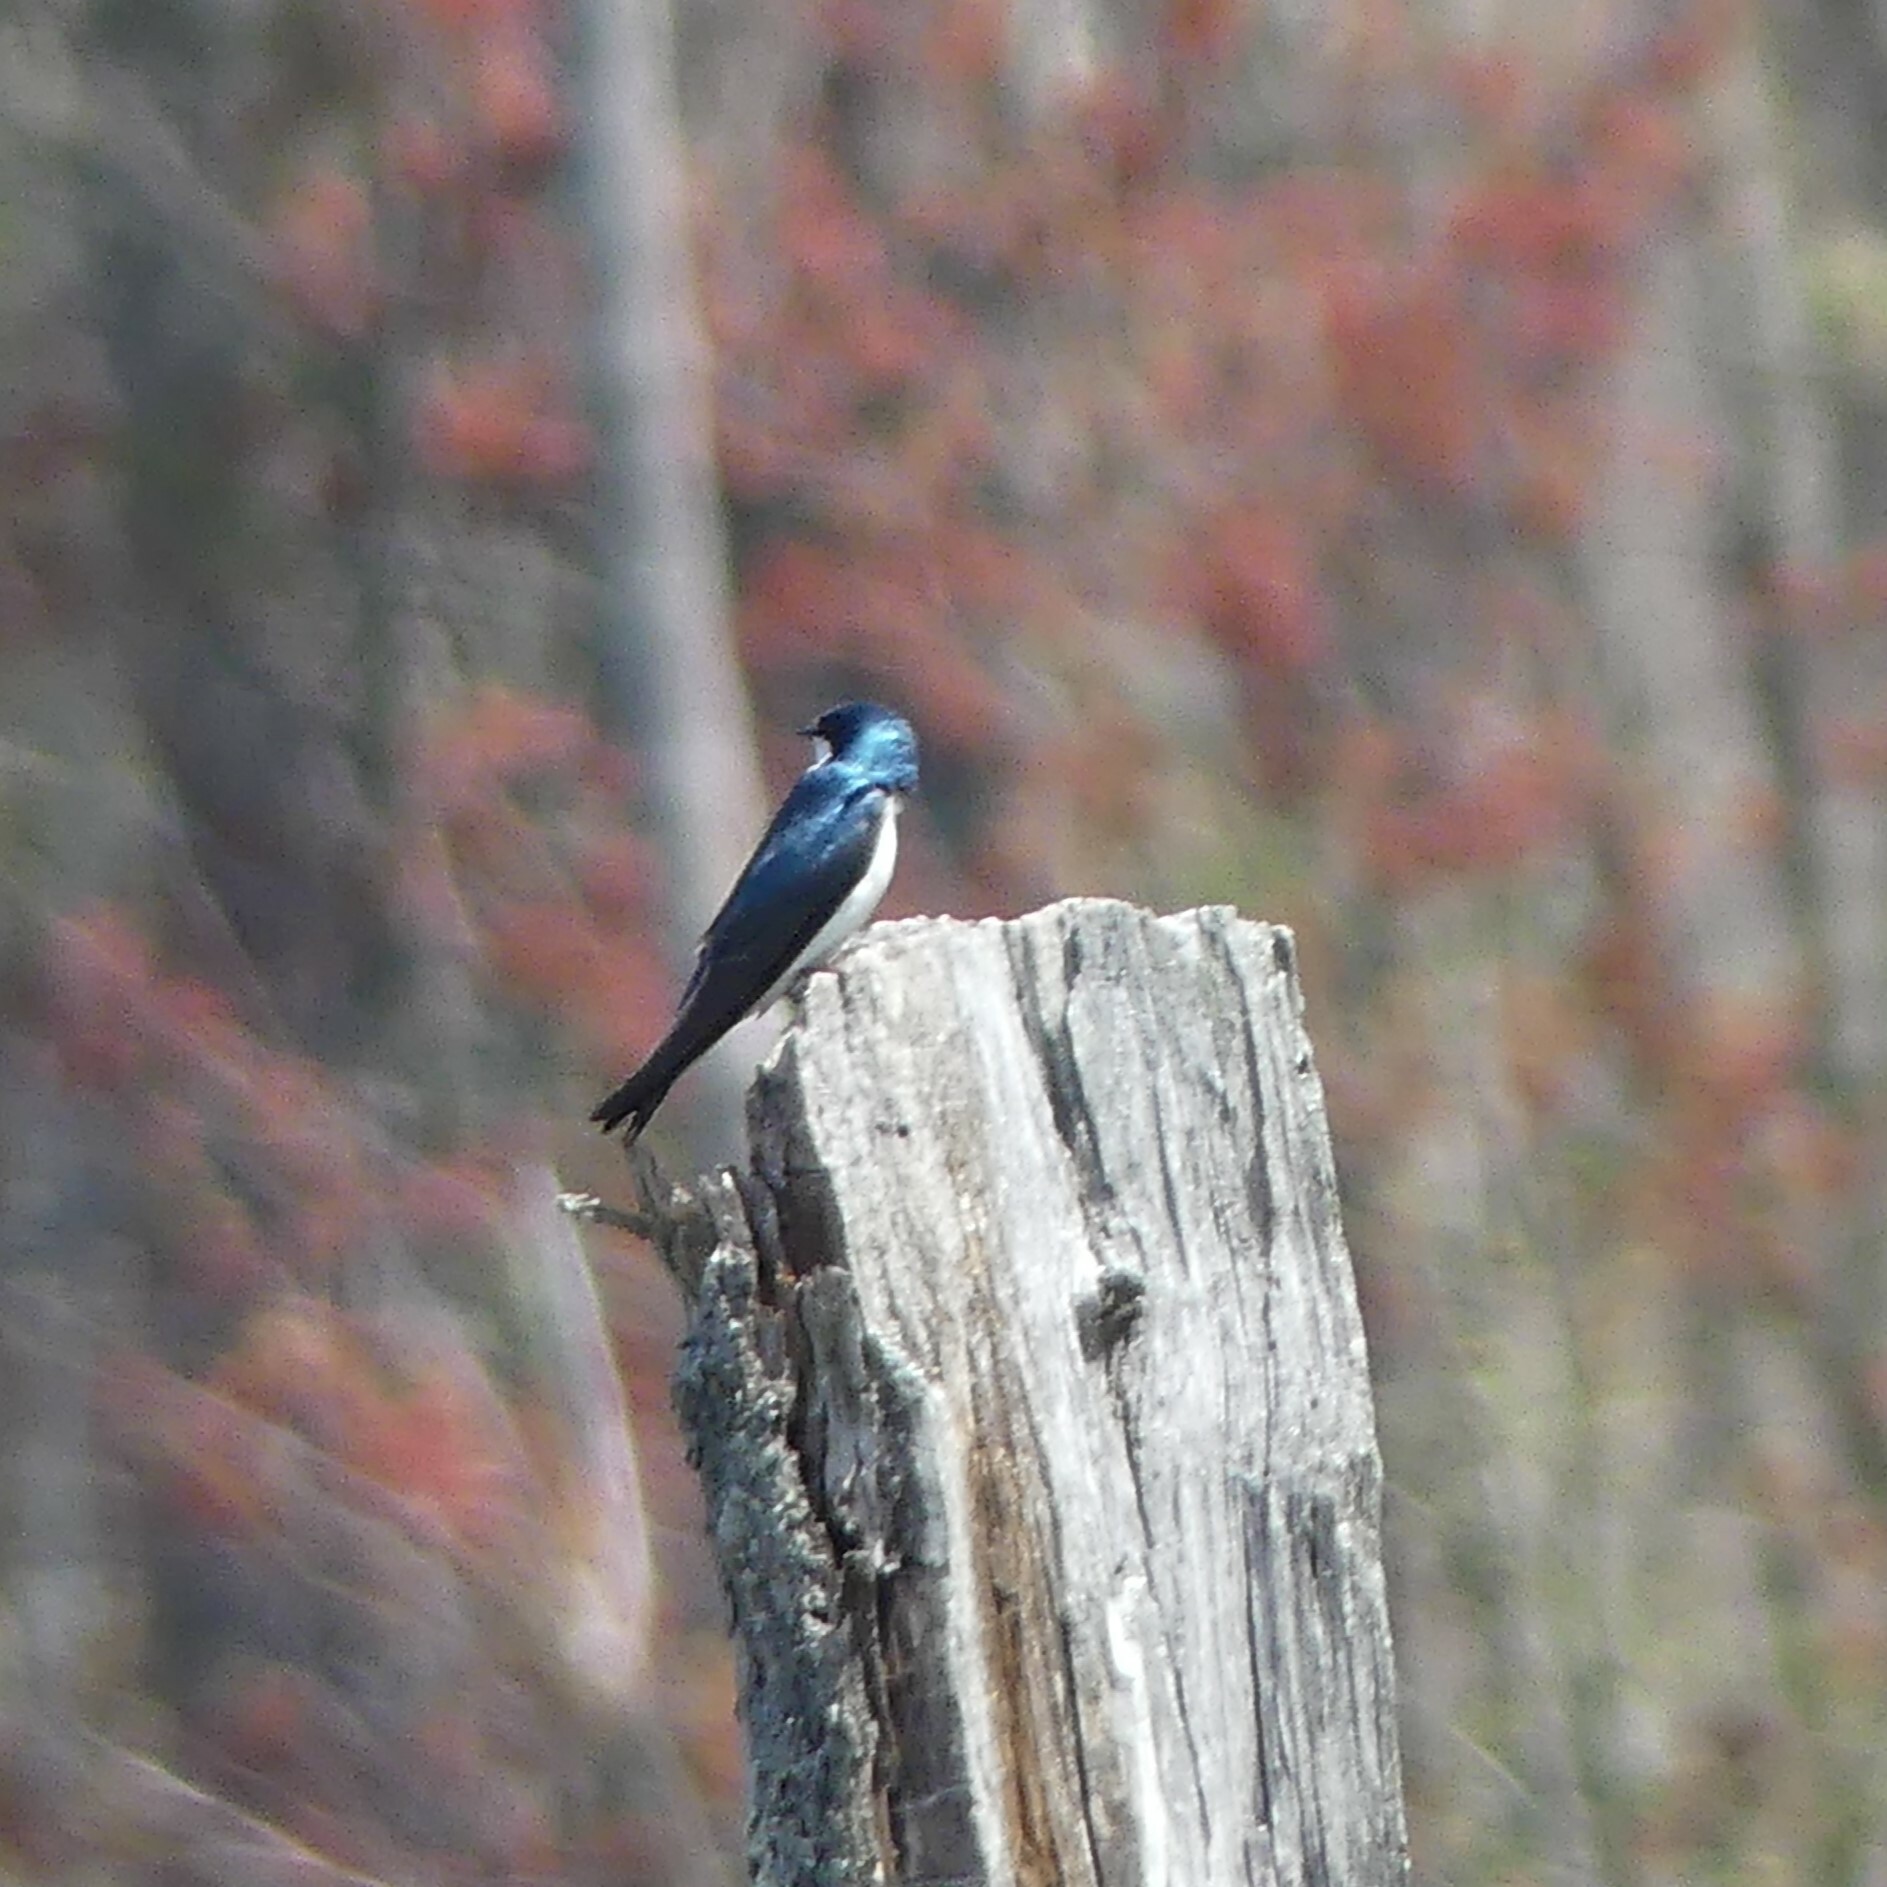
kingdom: Animalia
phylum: Chordata
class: Aves
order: Passeriformes
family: Hirundinidae
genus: Tachycineta
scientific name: Tachycineta bicolor
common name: Tree swallow
